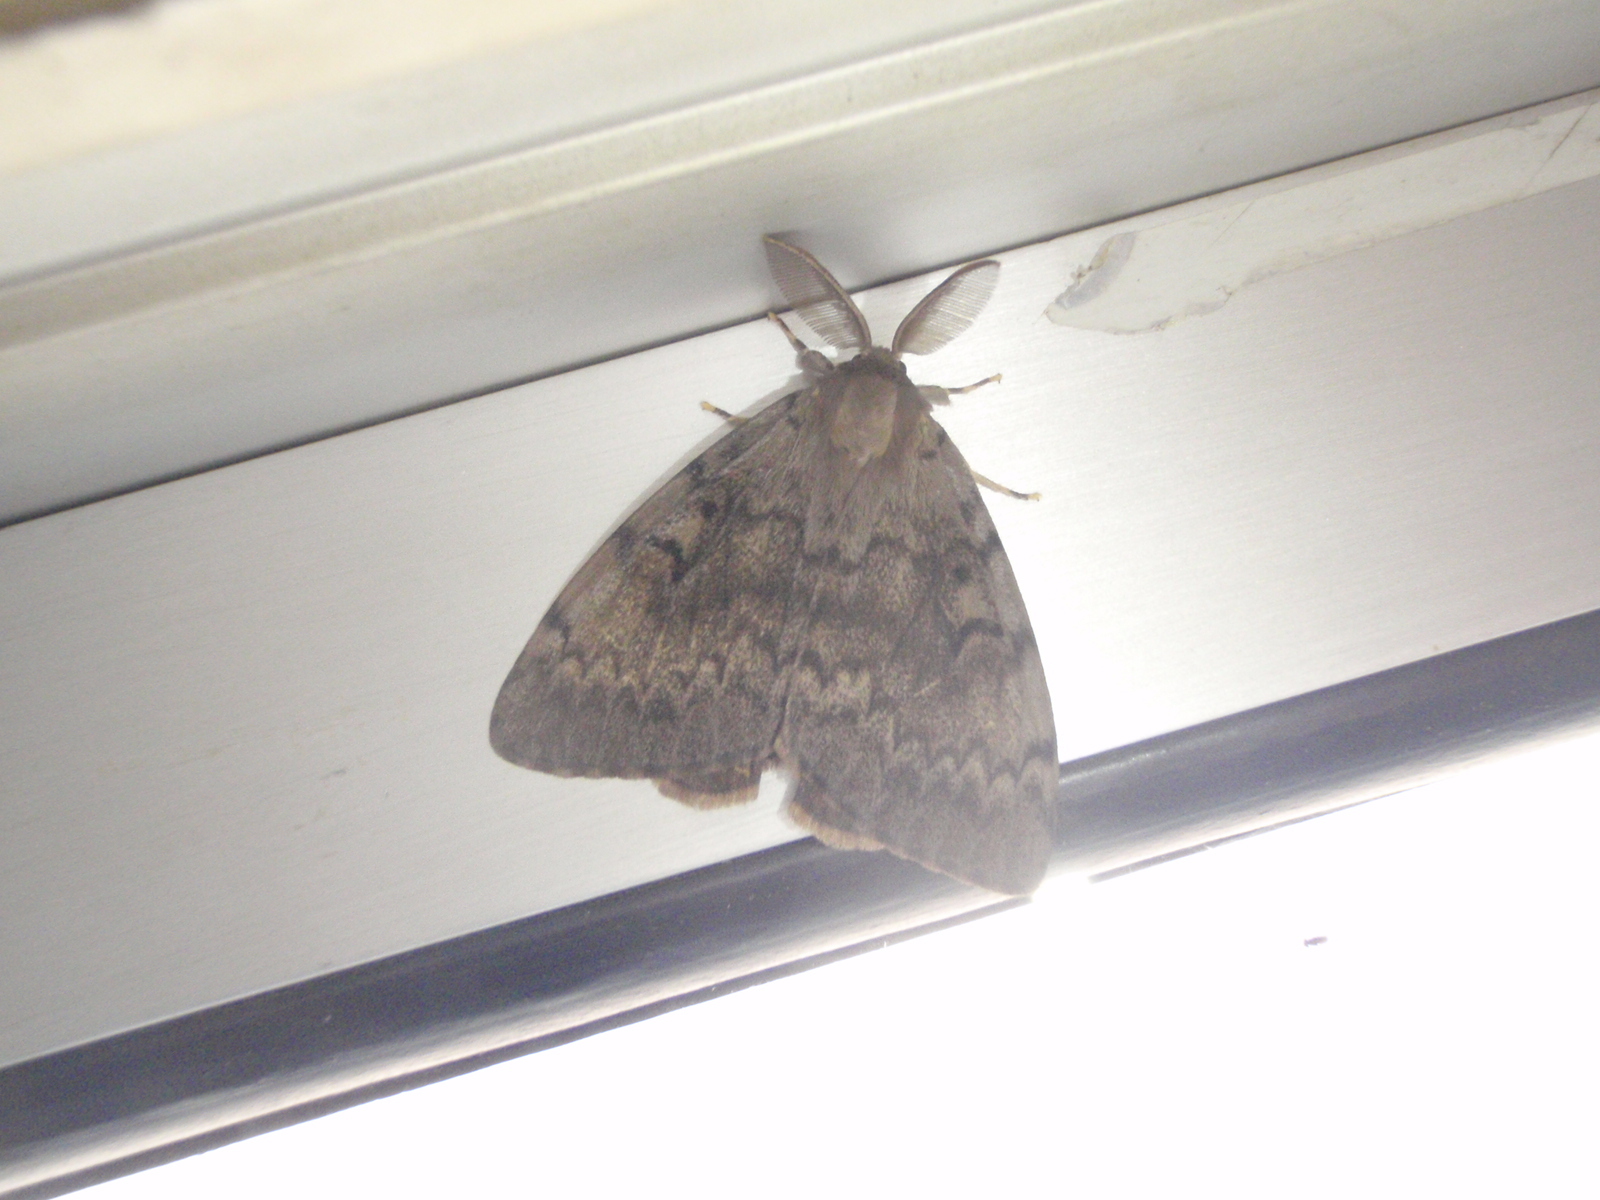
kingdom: Animalia
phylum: Arthropoda
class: Insecta
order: Lepidoptera
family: Erebidae
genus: Lymantria
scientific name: Lymantria dispar
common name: Gypsy moth
